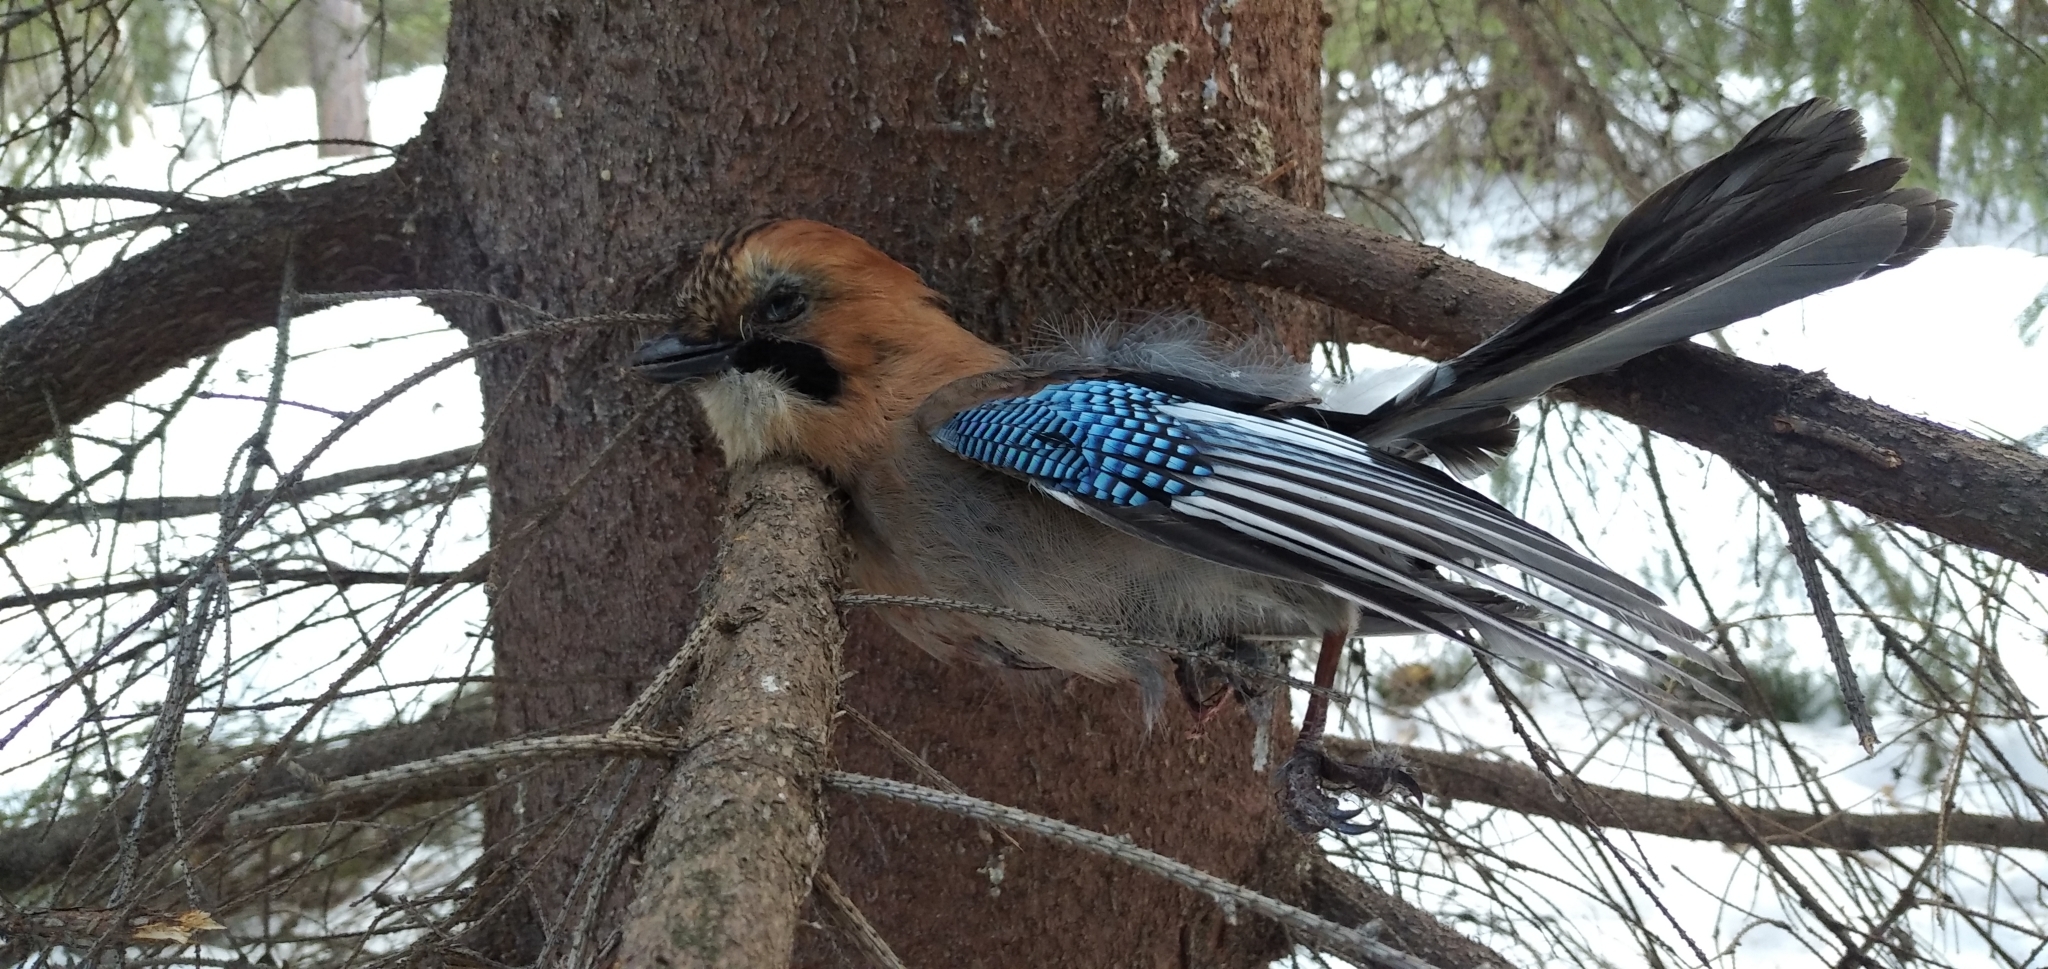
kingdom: Animalia
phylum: Chordata
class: Aves
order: Passeriformes
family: Corvidae
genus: Garrulus
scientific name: Garrulus glandarius
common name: Eurasian jay
